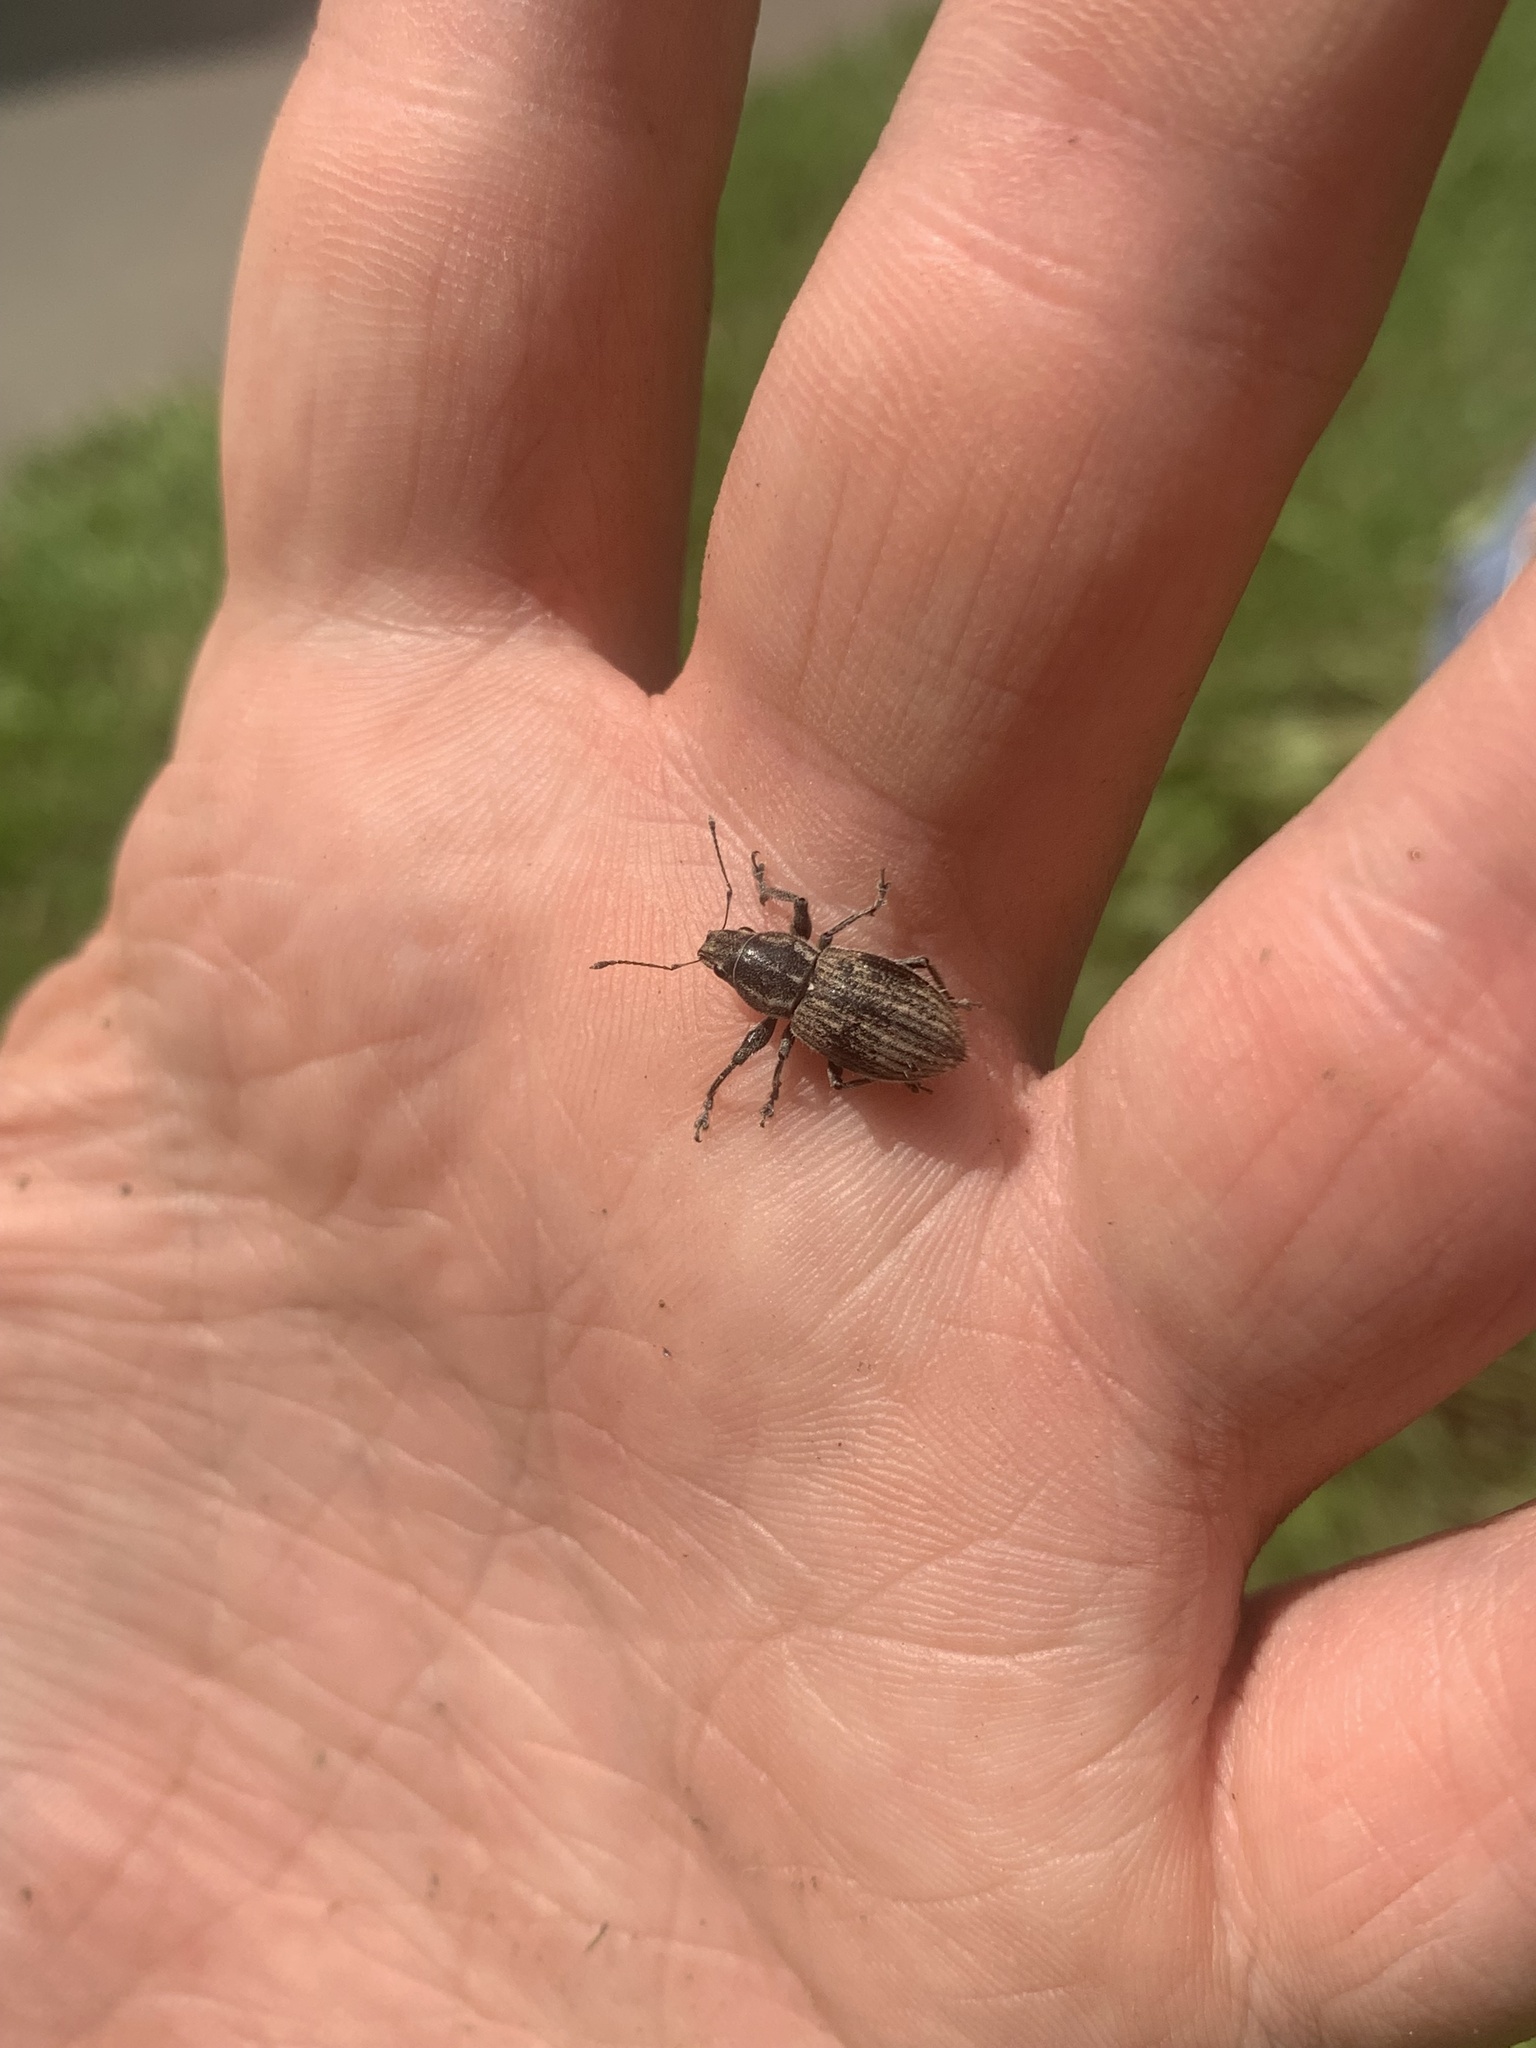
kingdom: Animalia
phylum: Arthropoda
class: Insecta
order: Coleoptera
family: Curculionidae
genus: Naupactus
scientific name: Naupactus leucoloma
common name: Whitefringed beetle
